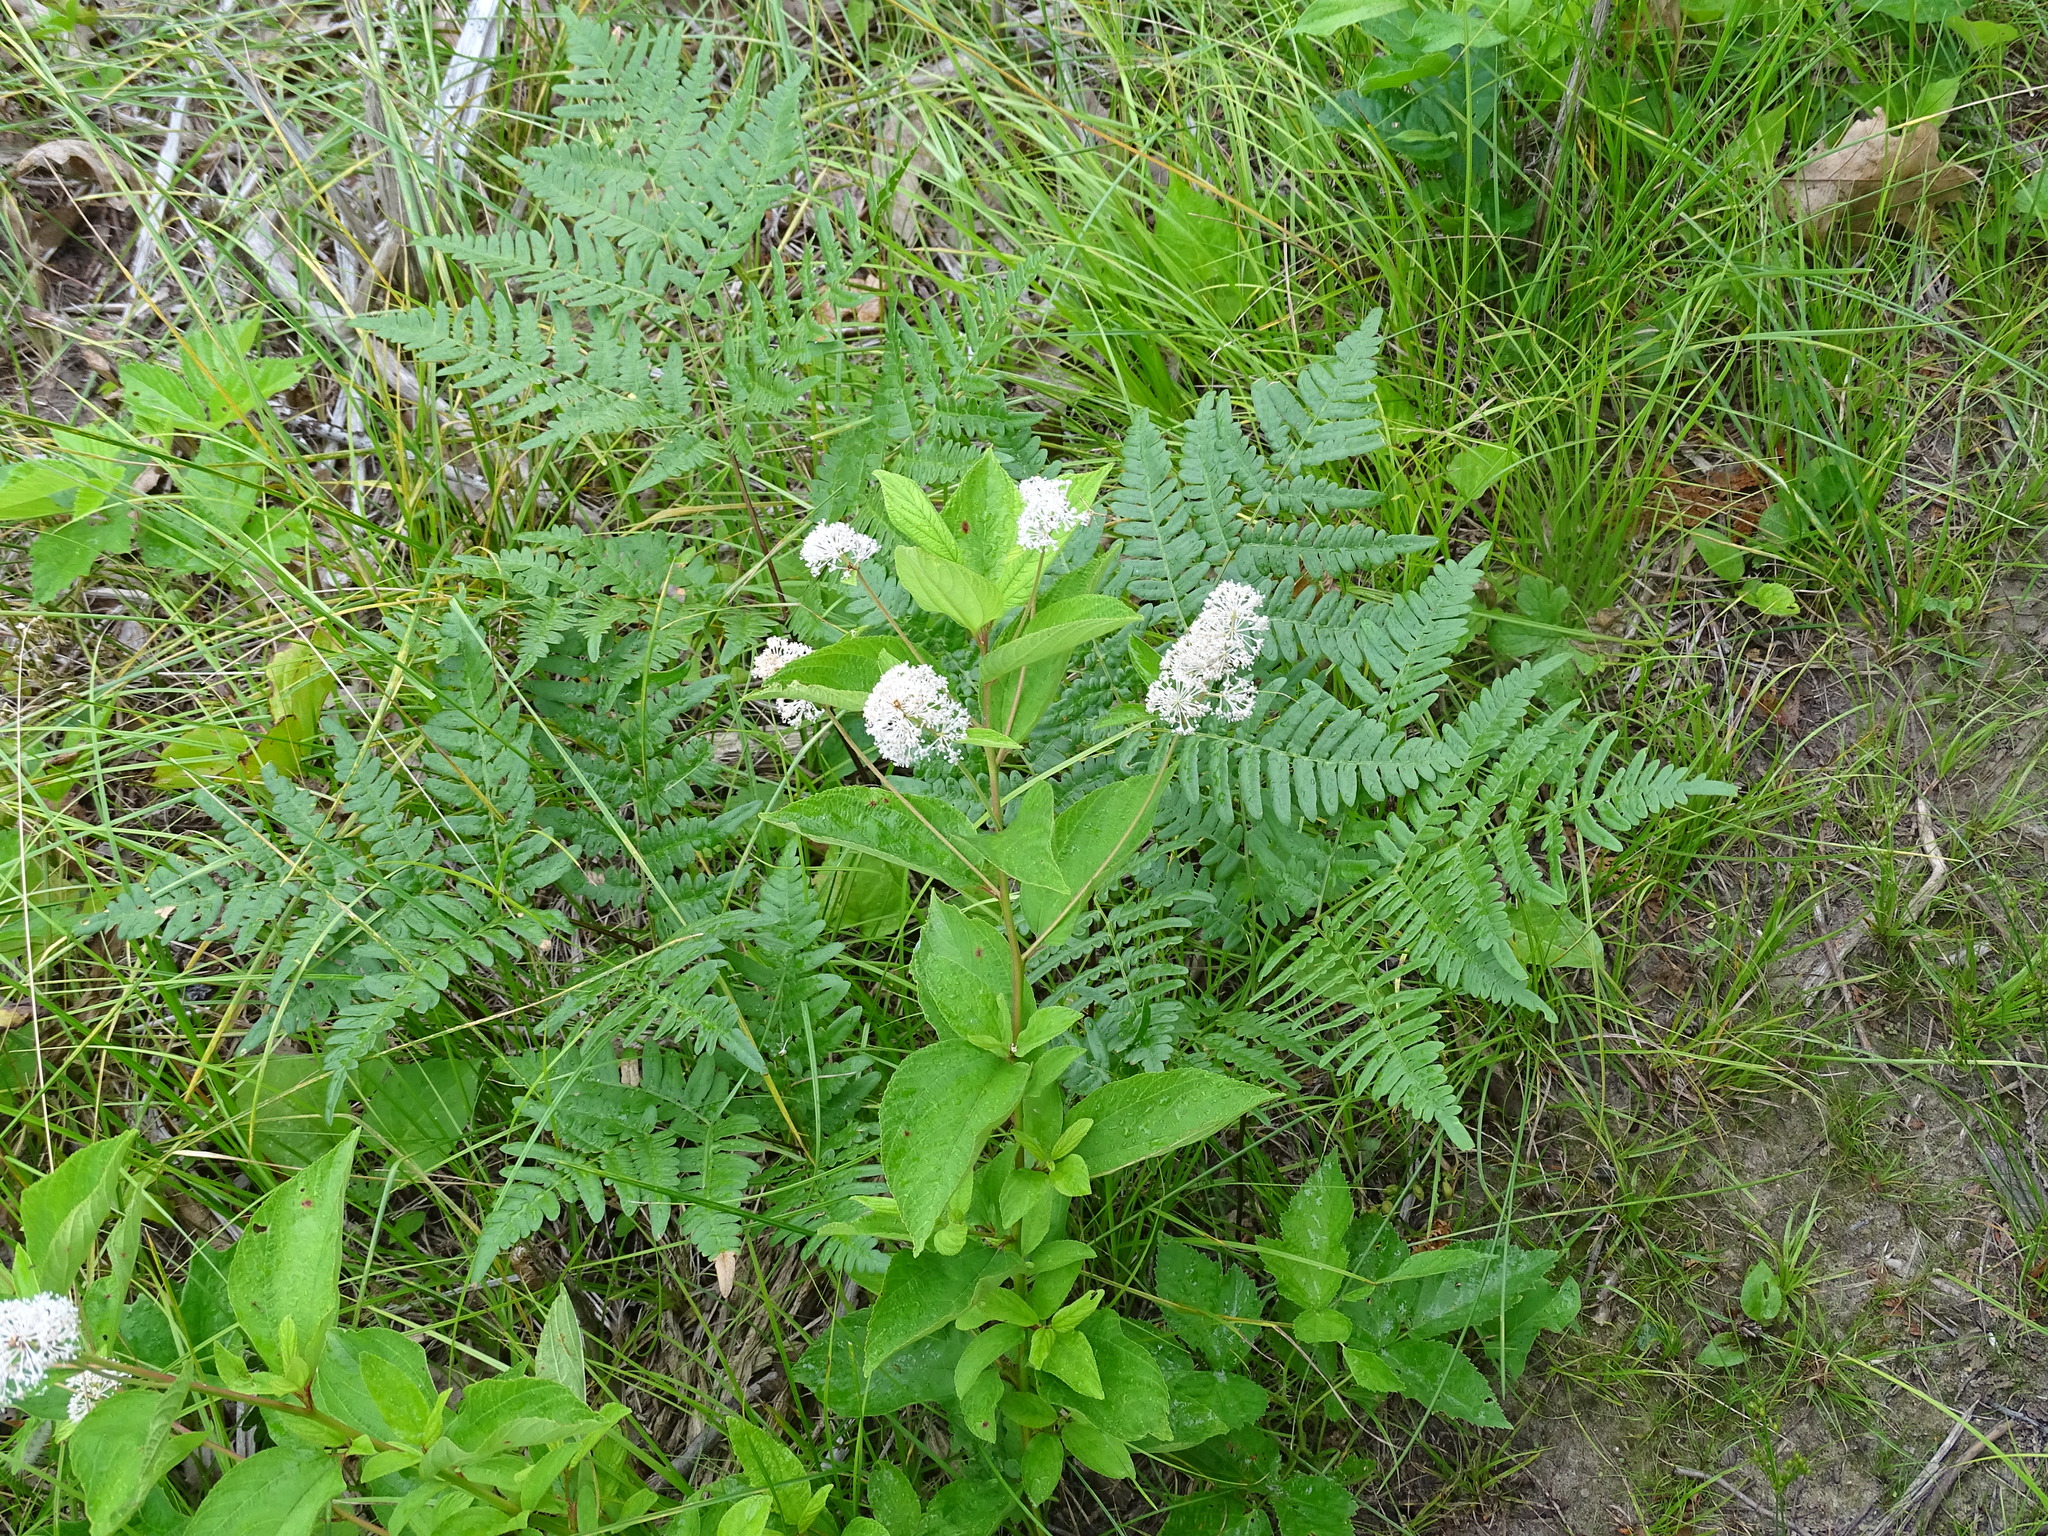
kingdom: Plantae
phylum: Tracheophyta
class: Magnoliopsida
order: Rosales
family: Rhamnaceae
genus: Ceanothus
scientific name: Ceanothus americanus
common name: Redroot
